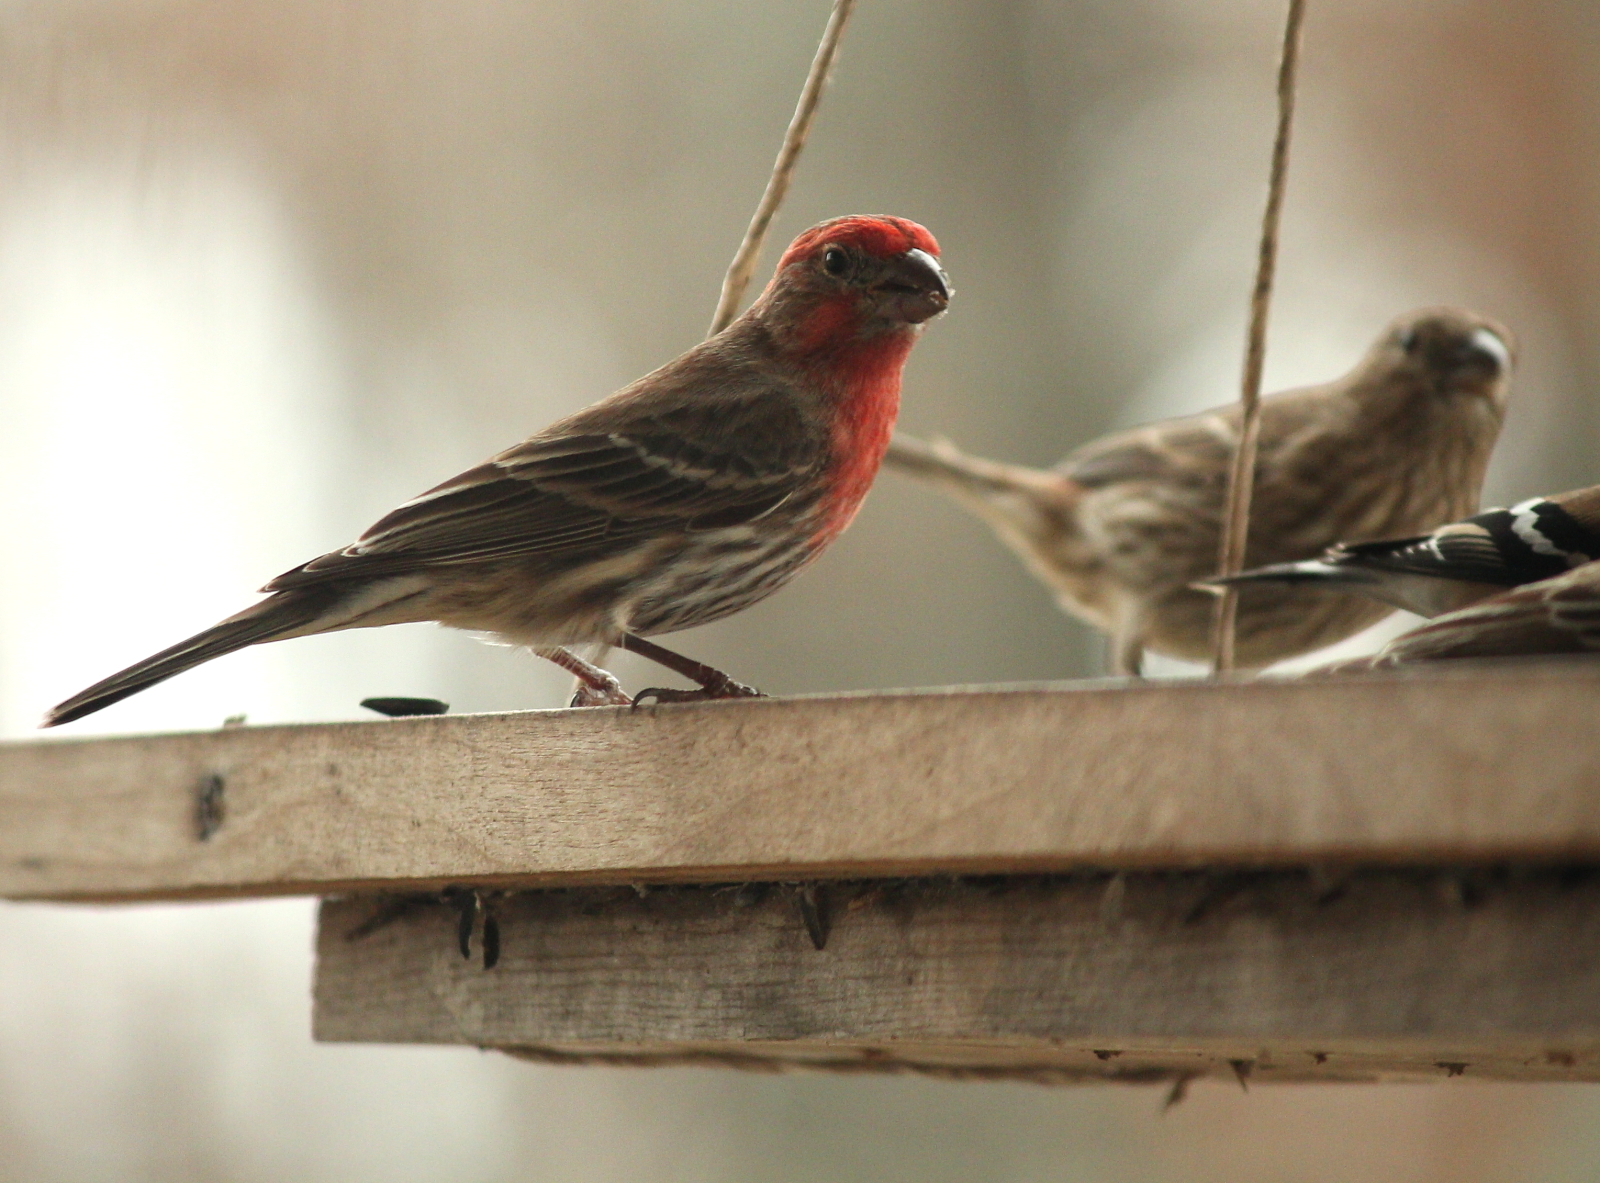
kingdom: Animalia
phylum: Chordata
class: Aves
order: Passeriformes
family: Fringillidae
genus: Haemorhous
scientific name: Haemorhous mexicanus
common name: House finch
